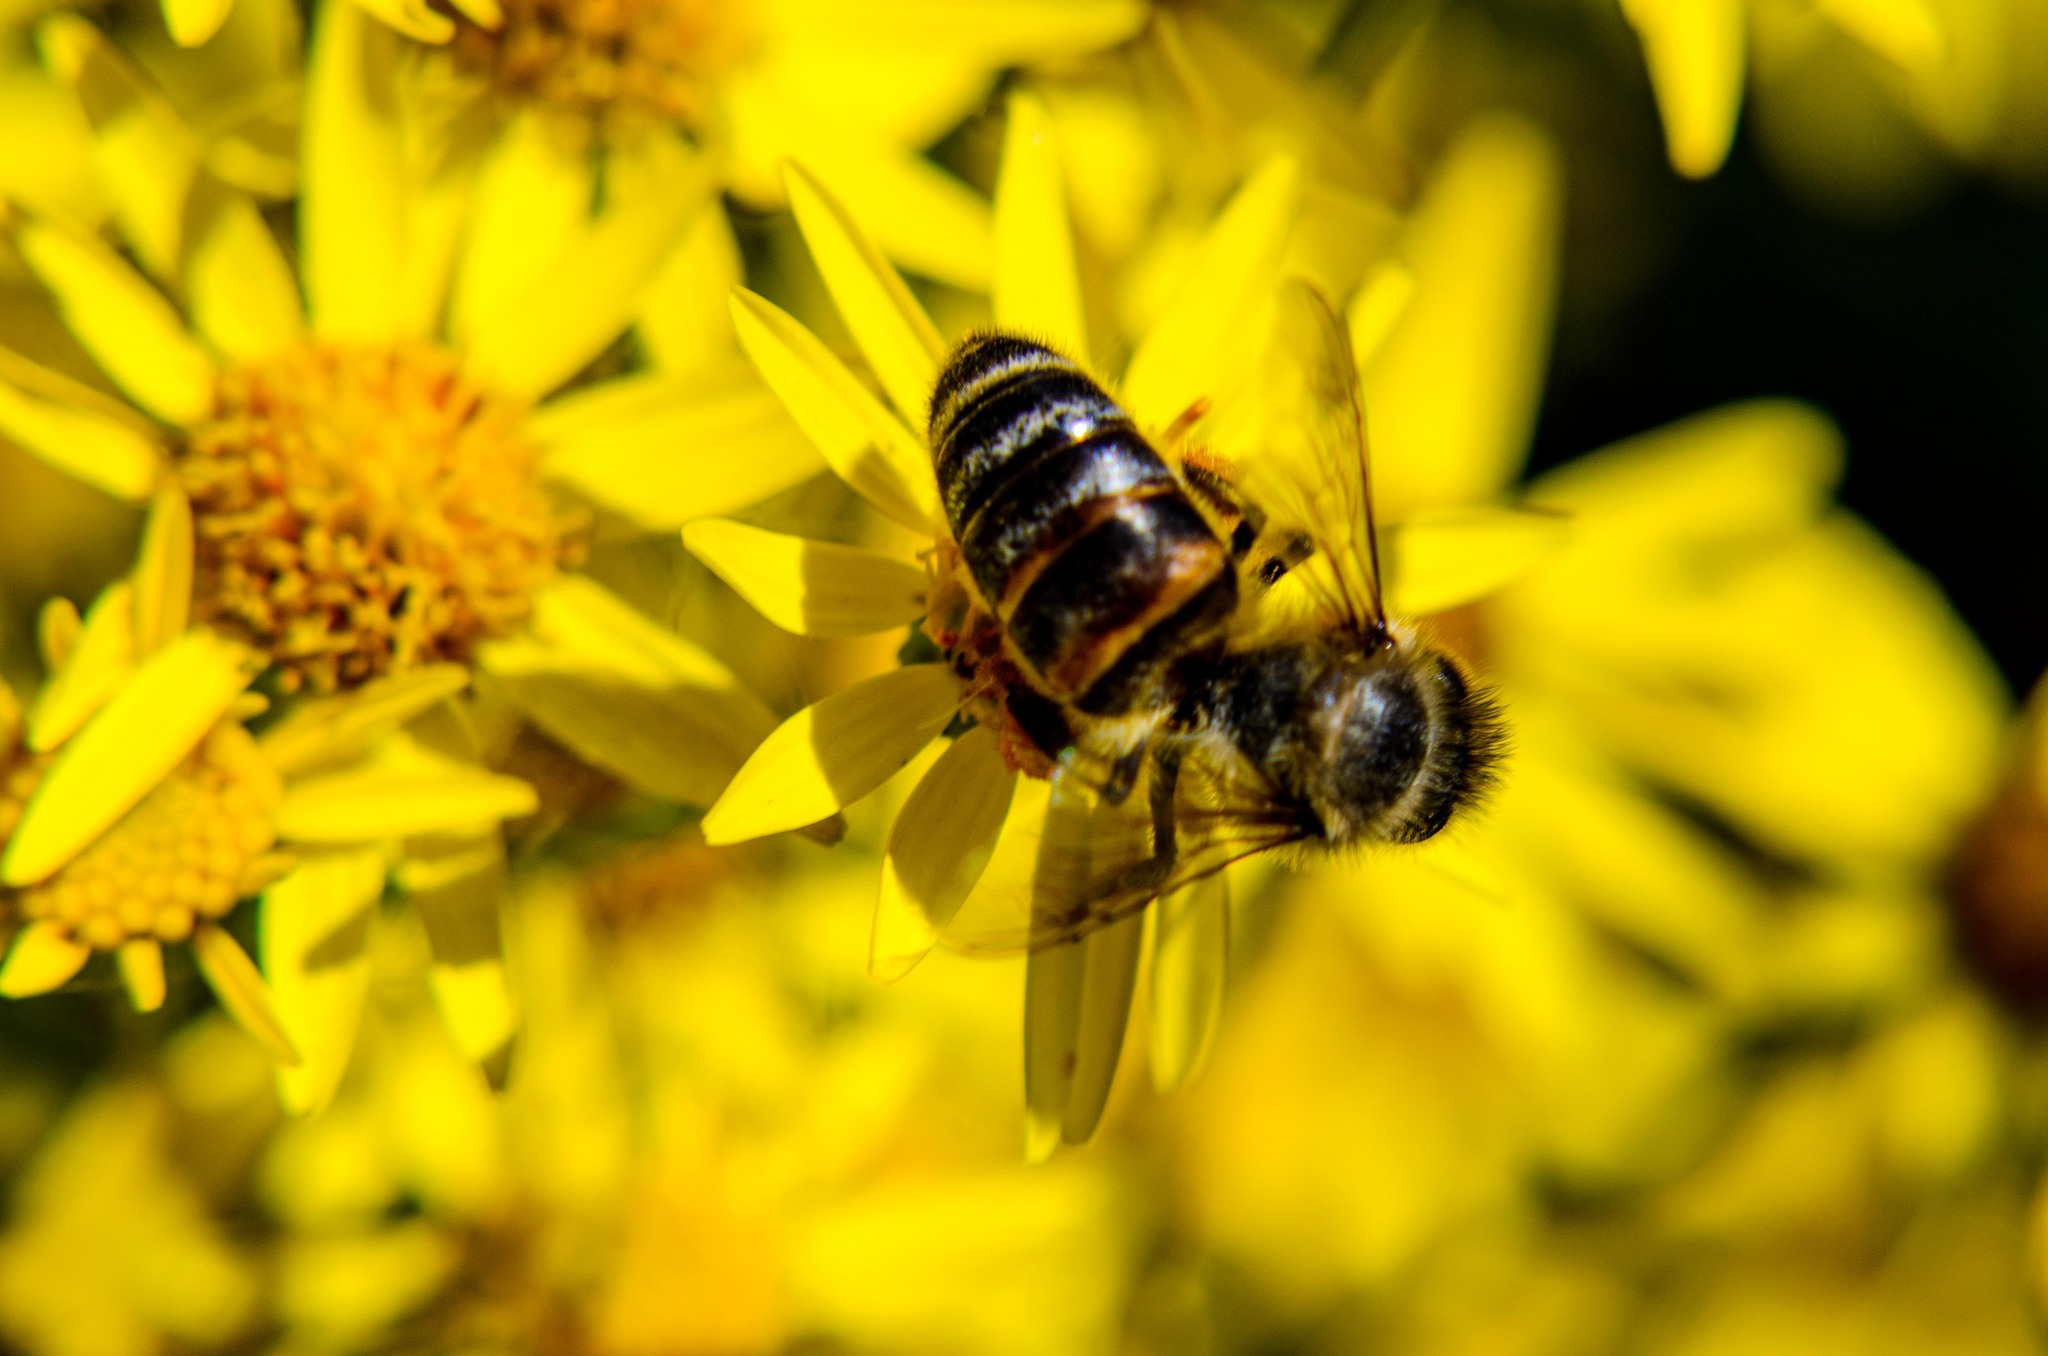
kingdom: Animalia
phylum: Arthropoda
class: Insecta
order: Hymenoptera
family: Apidae
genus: Apis
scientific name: Apis mellifera
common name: Honey bee
